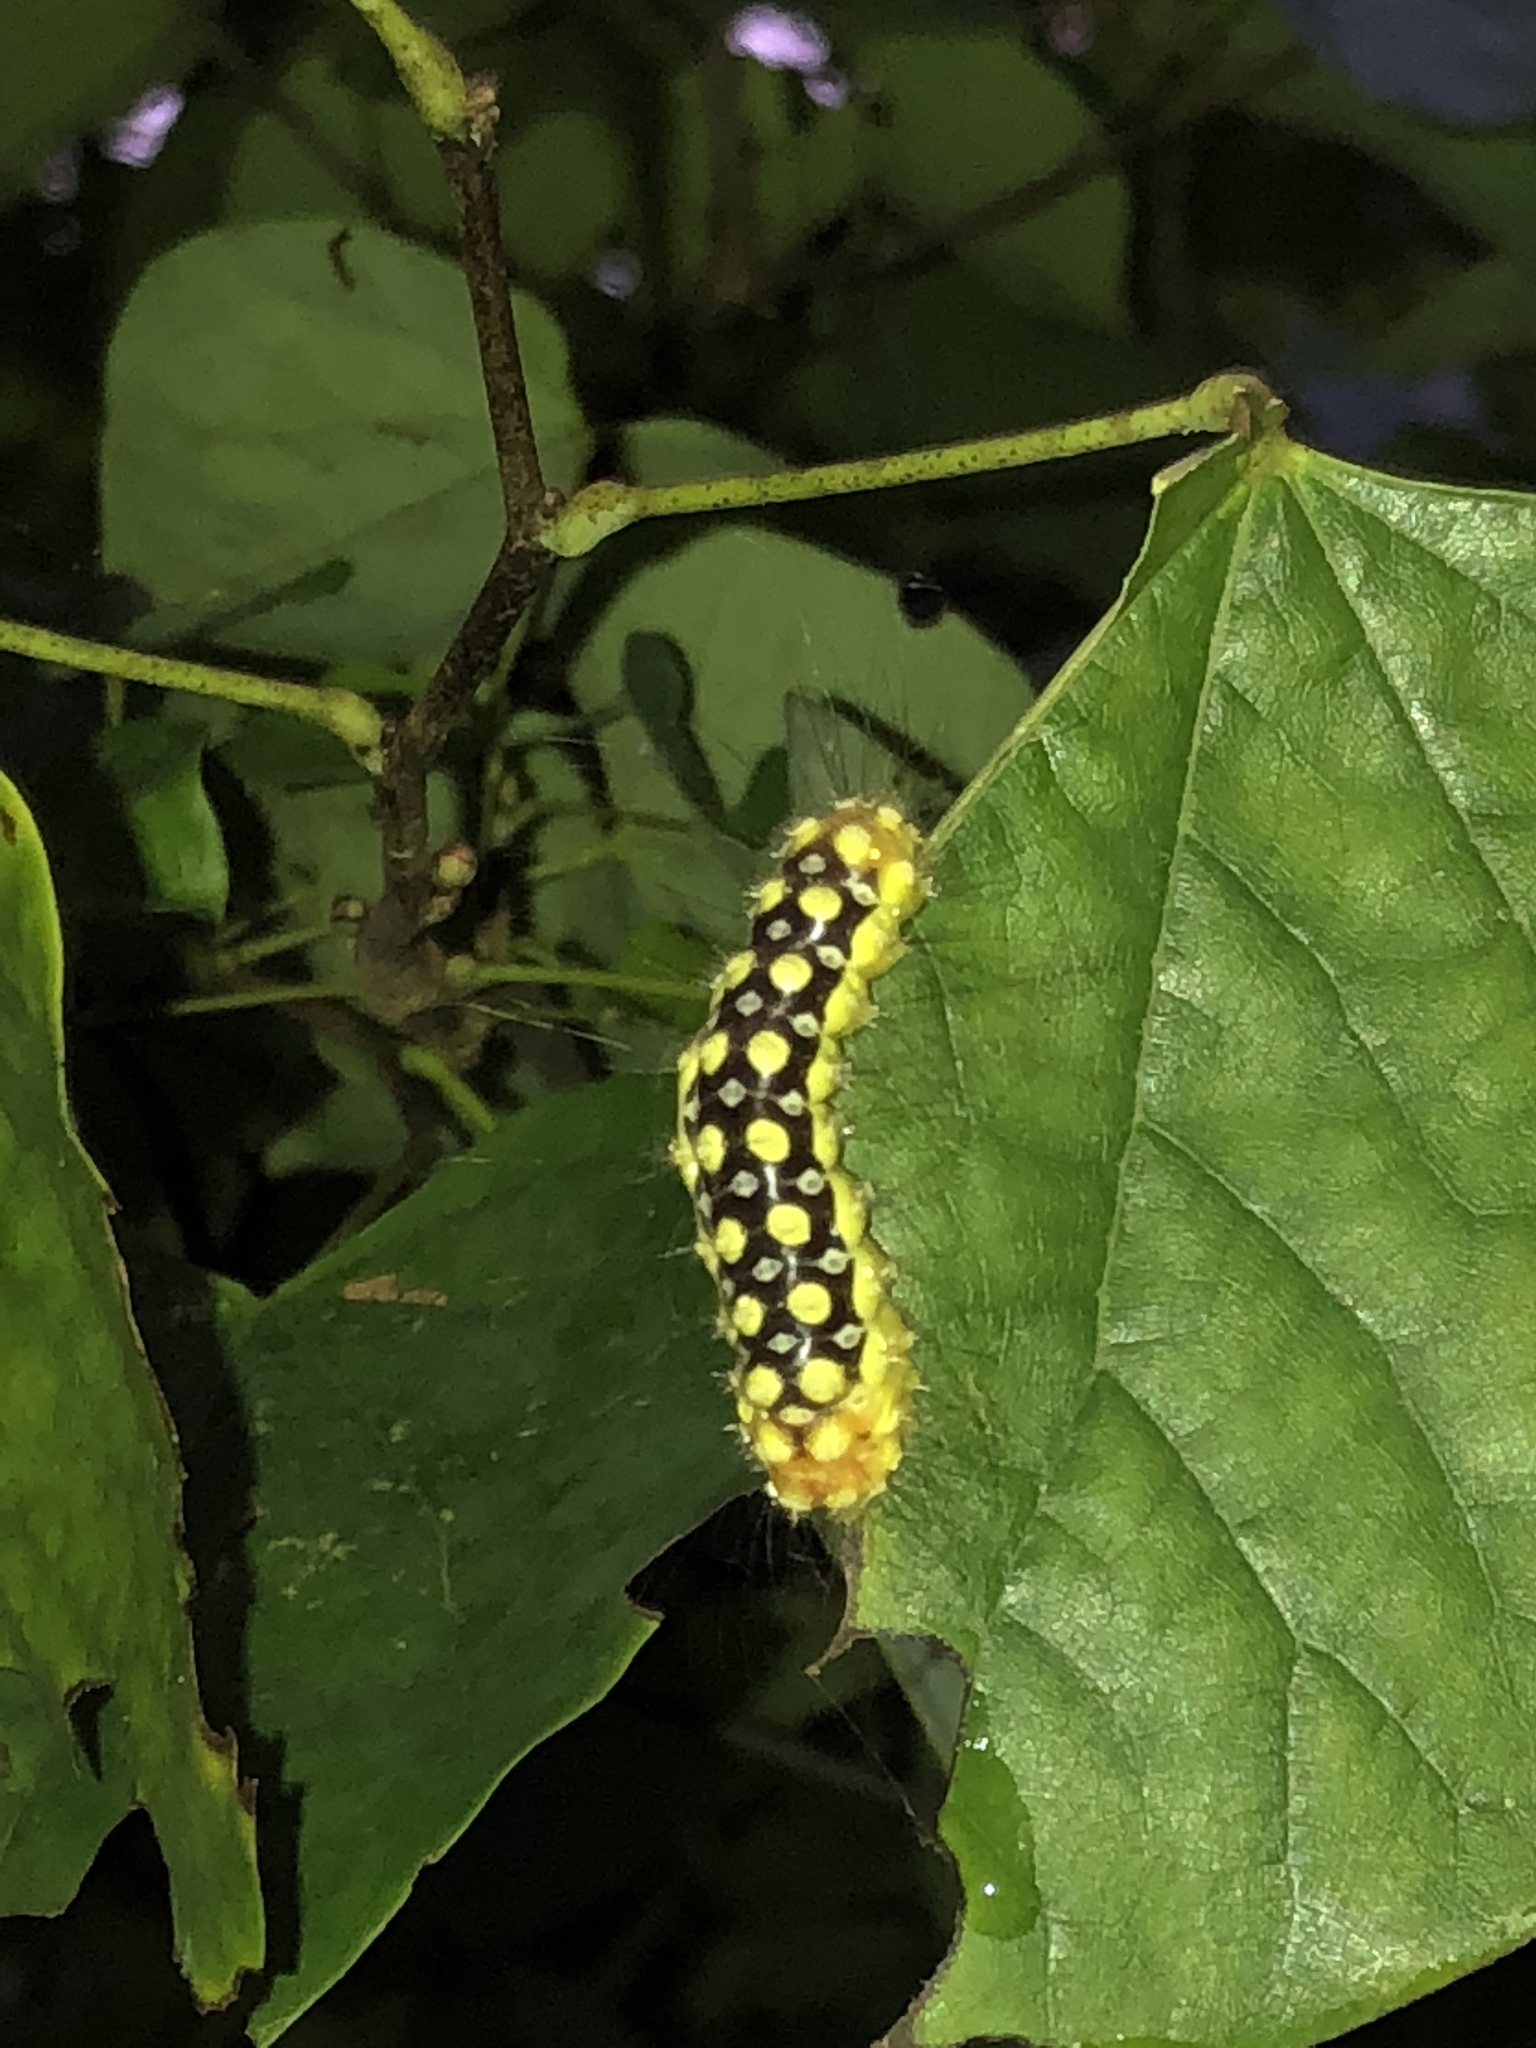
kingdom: Animalia
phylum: Arthropoda
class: Insecta
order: Lepidoptera
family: Megalopygidae
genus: Norape
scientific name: Norape cretata
